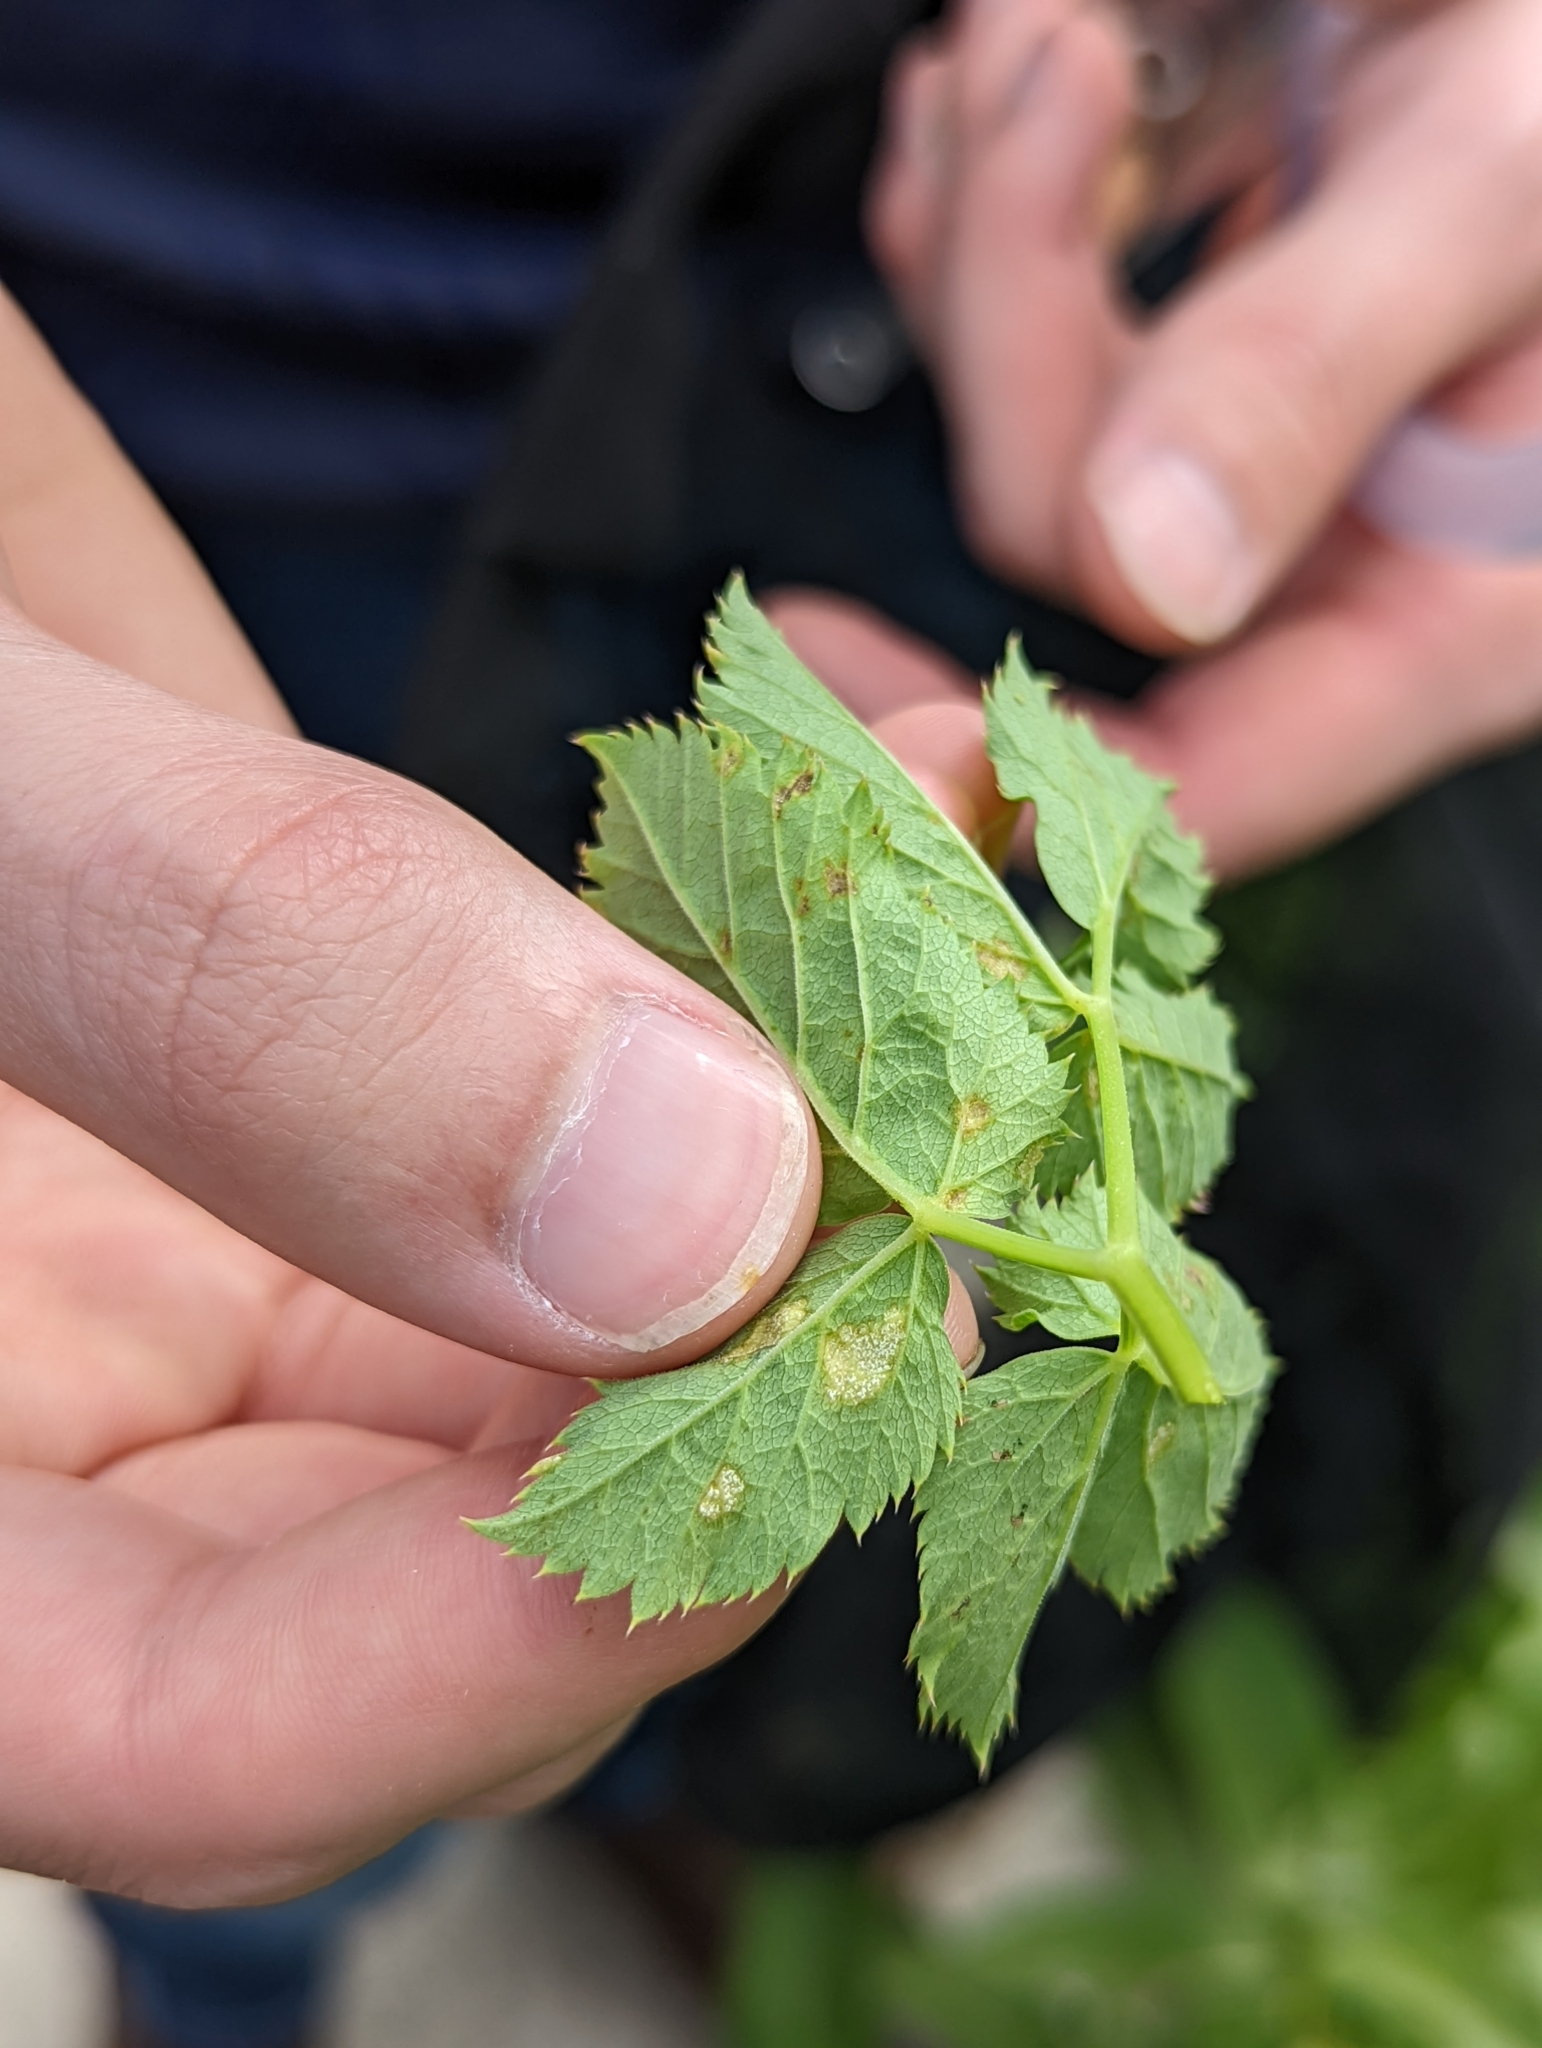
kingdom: Chromista
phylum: Oomycota
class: Peronosporea
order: Peronosporales
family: Peronosporaceae
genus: Peronospora
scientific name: Peronospora crustosa
